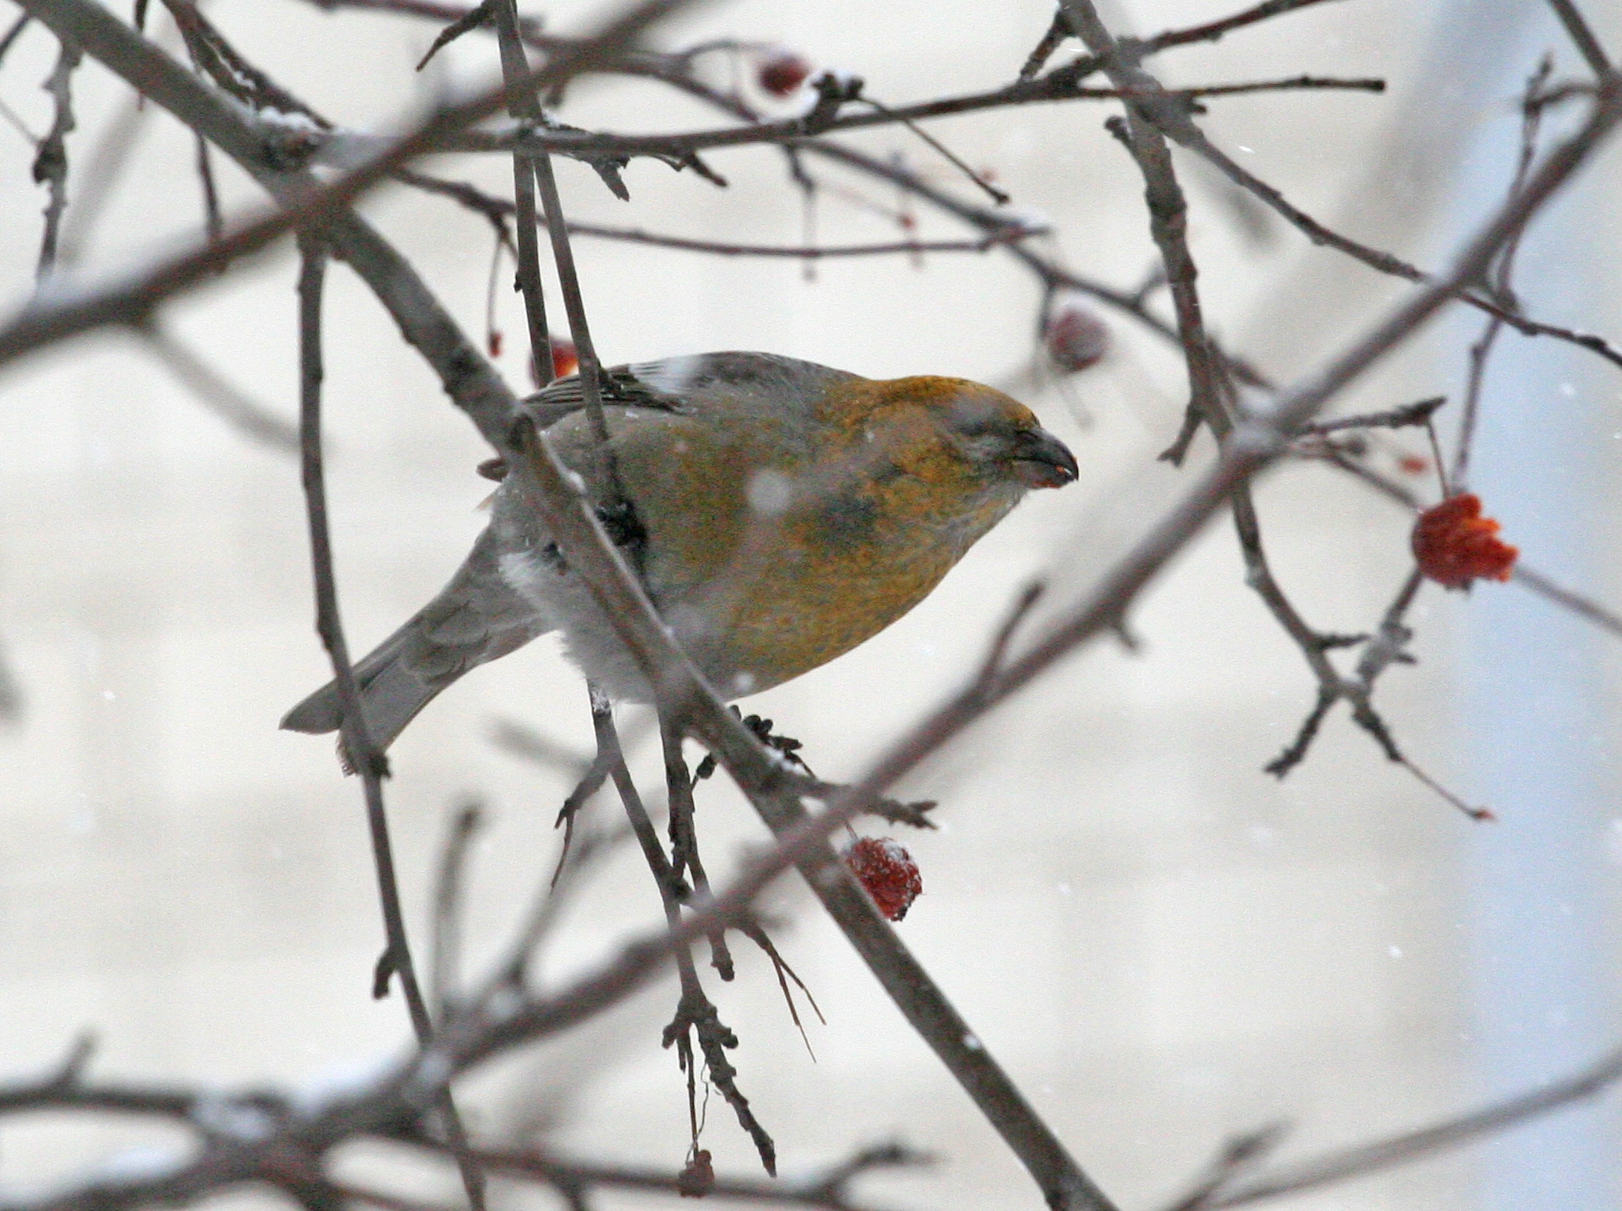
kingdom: Animalia
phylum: Chordata
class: Aves
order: Passeriformes
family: Fringillidae
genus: Pinicola
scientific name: Pinicola enucleator
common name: Pine grosbeak
